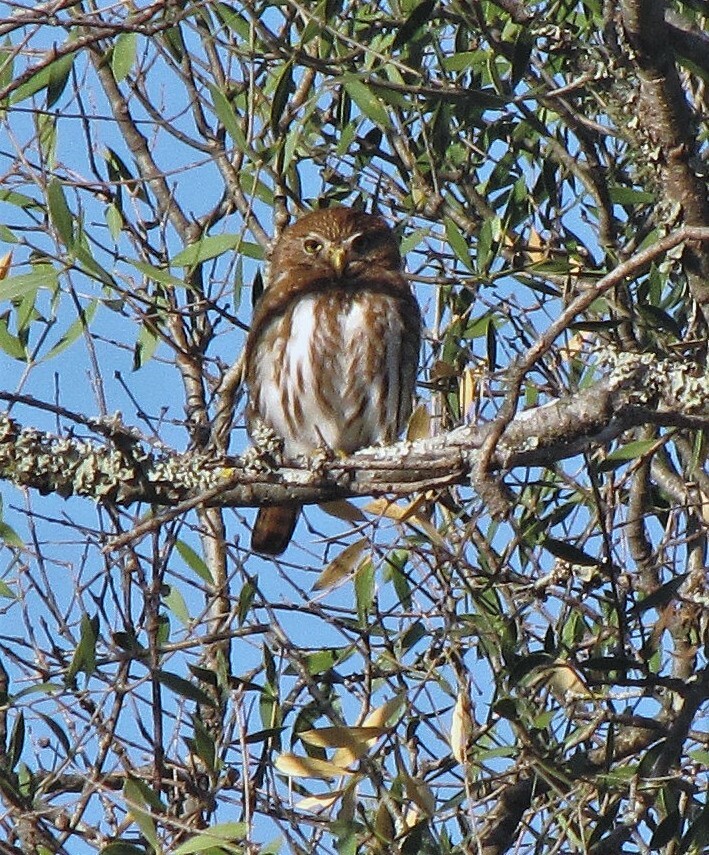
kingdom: Animalia
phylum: Chordata
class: Aves
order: Strigiformes
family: Strigidae
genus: Glaucidium
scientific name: Glaucidium brasilianum
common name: Ferruginous pygmy-owl
